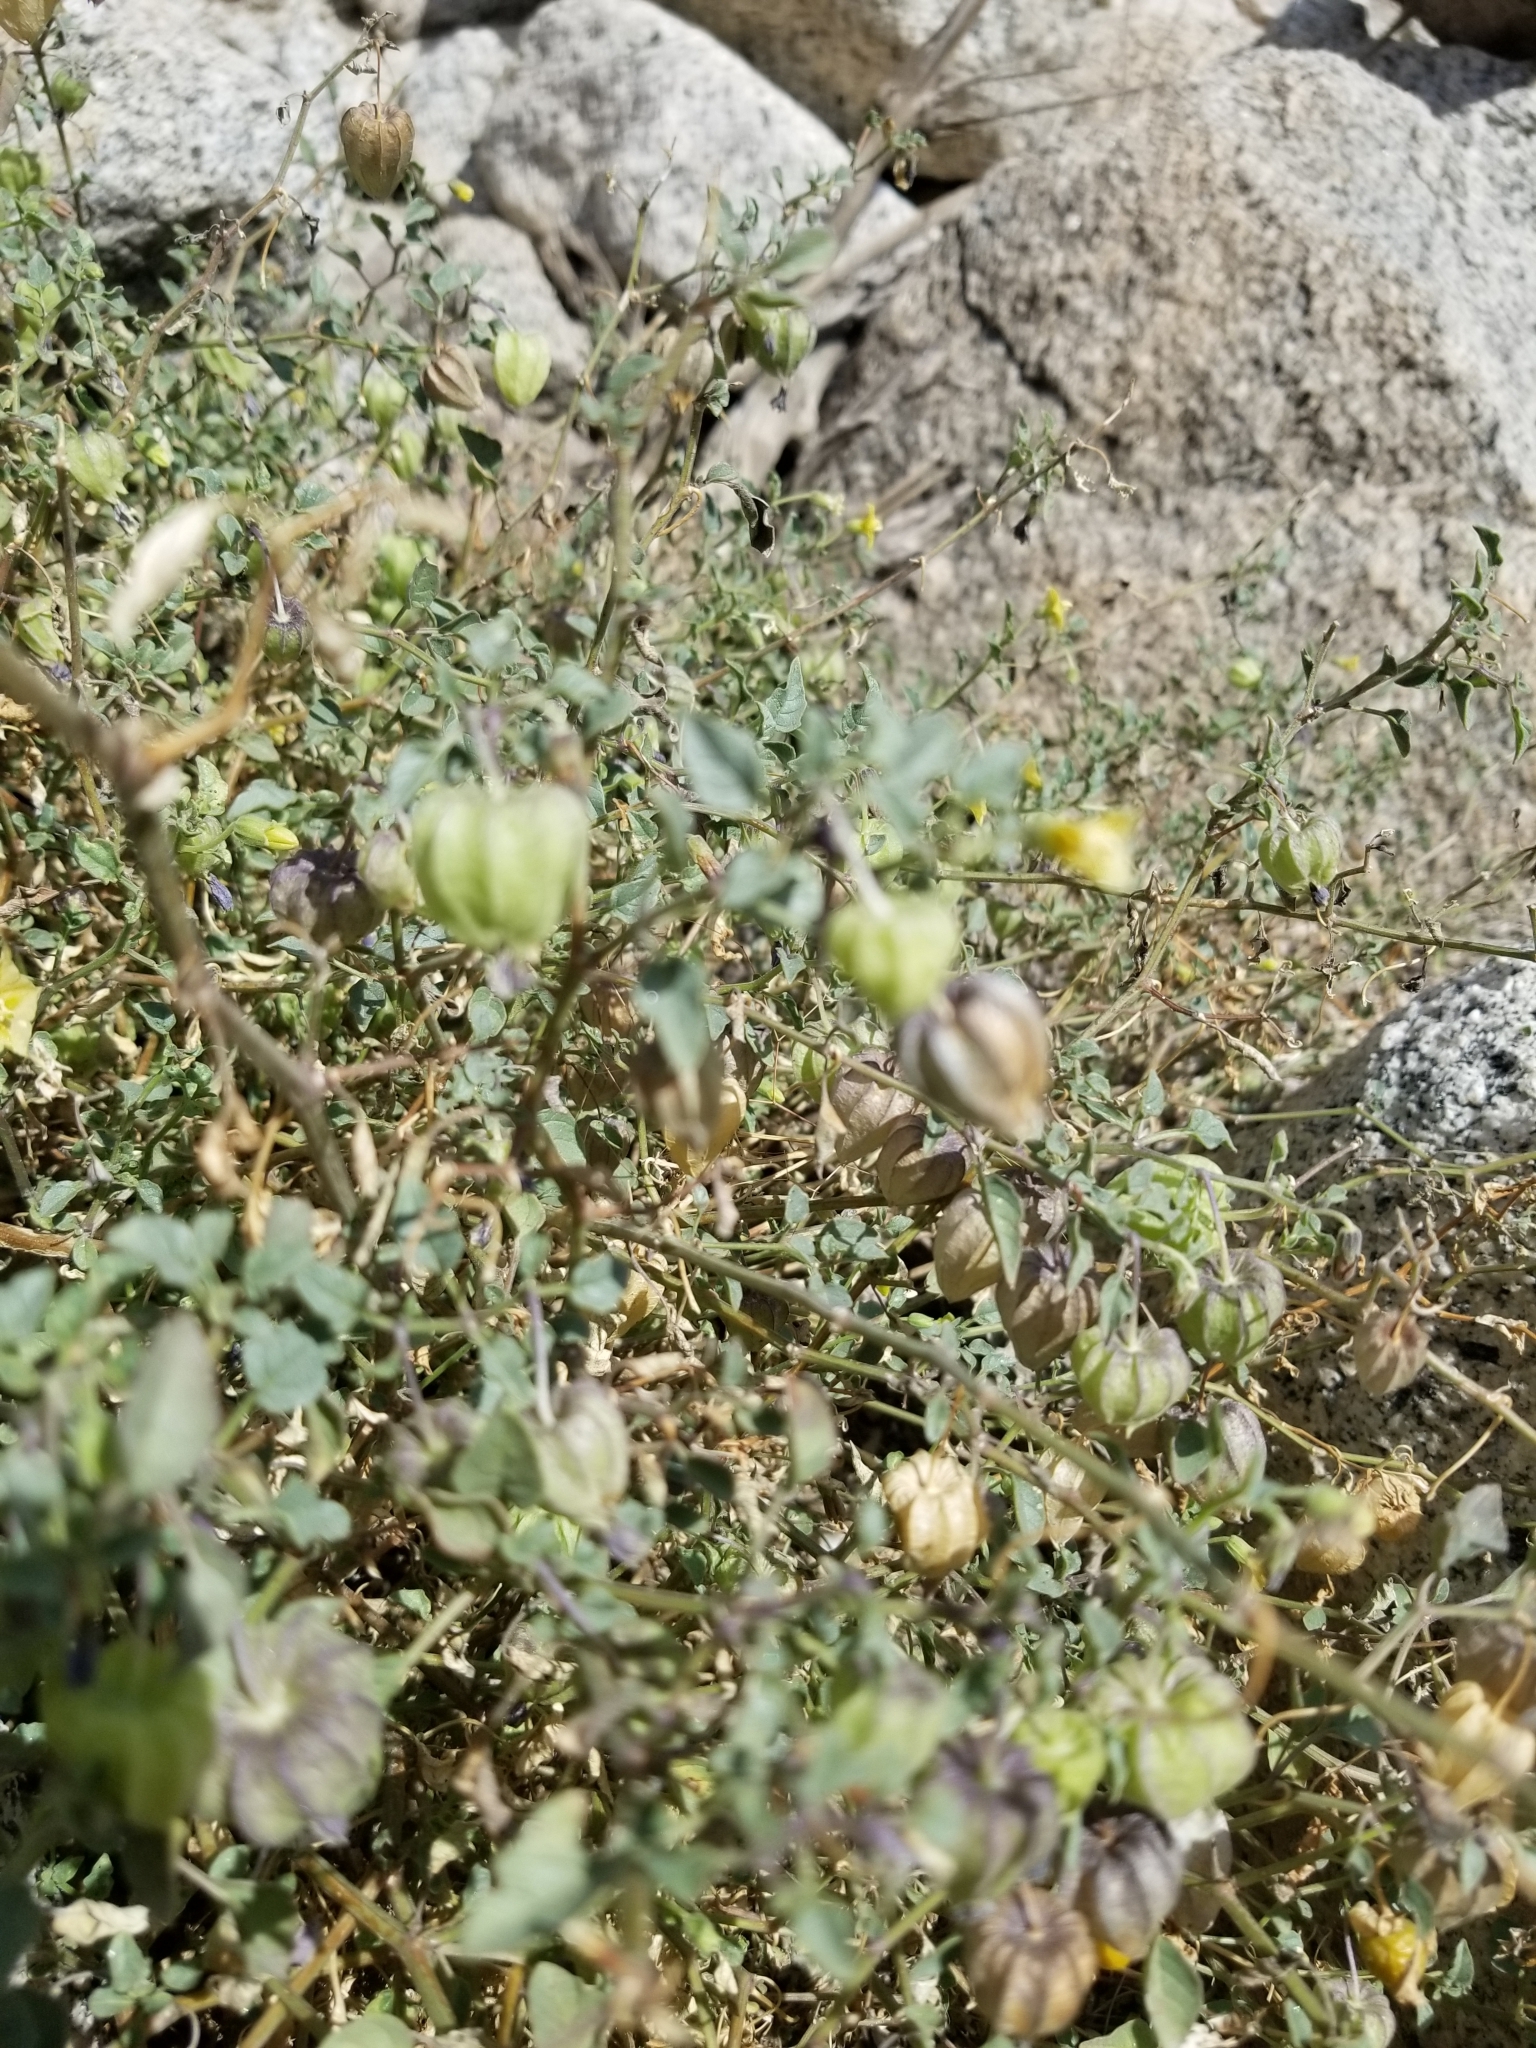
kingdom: Plantae
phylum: Tracheophyta
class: Magnoliopsida
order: Solanales
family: Solanaceae
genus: Physalis
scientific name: Physalis crassifolia
